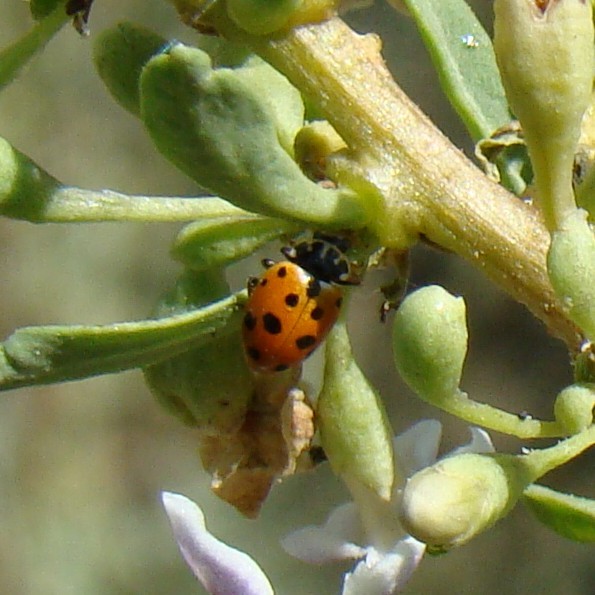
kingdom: Animalia
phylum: Arthropoda
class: Insecta
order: Coleoptera
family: Coccinellidae
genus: Hippodamia
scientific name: Hippodamia variegata
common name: Ladybird beetle
